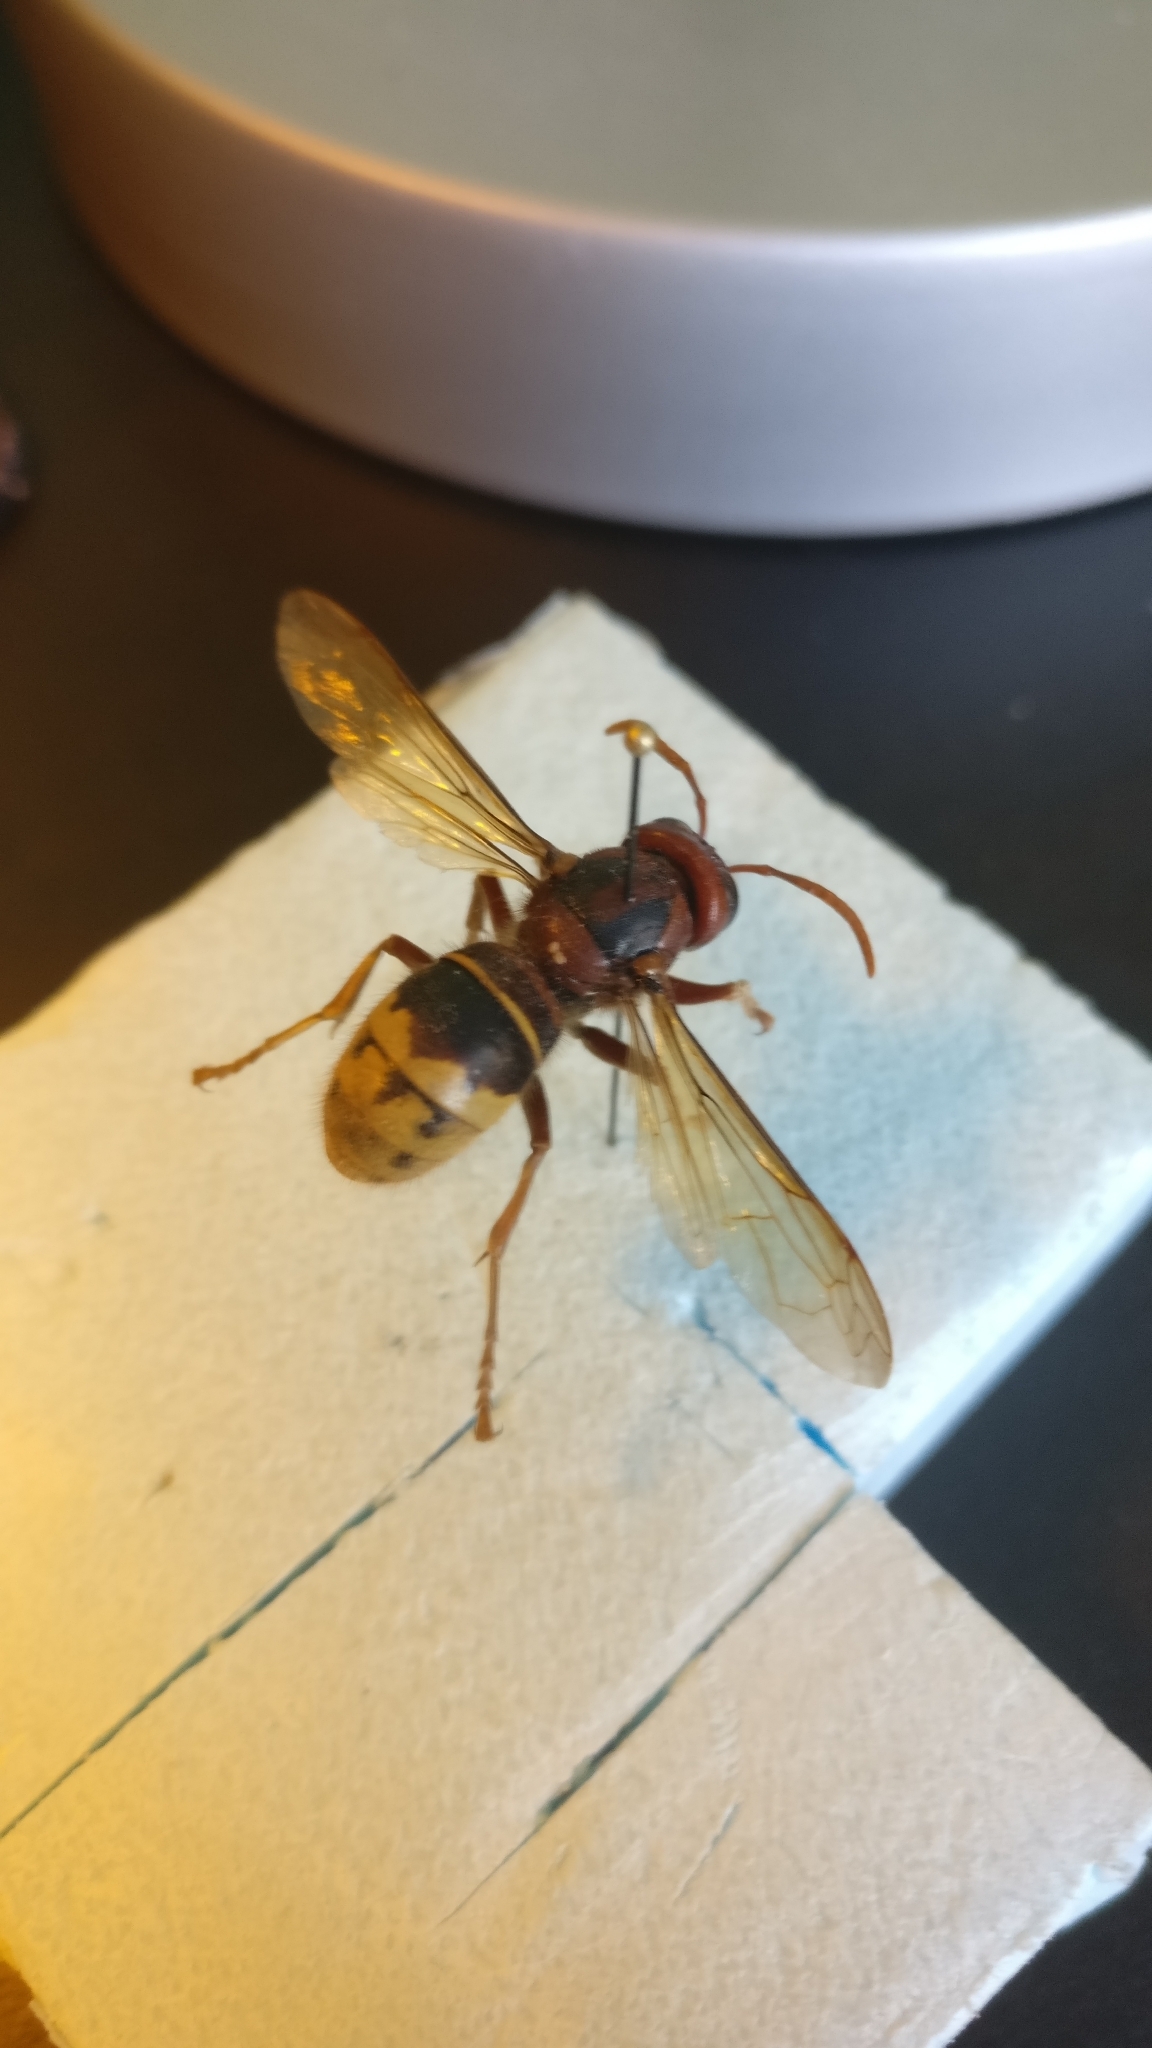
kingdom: Animalia
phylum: Arthropoda
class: Insecta
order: Hymenoptera
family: Vespidae
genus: Vespa
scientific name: Vespa crabro
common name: Hornet
